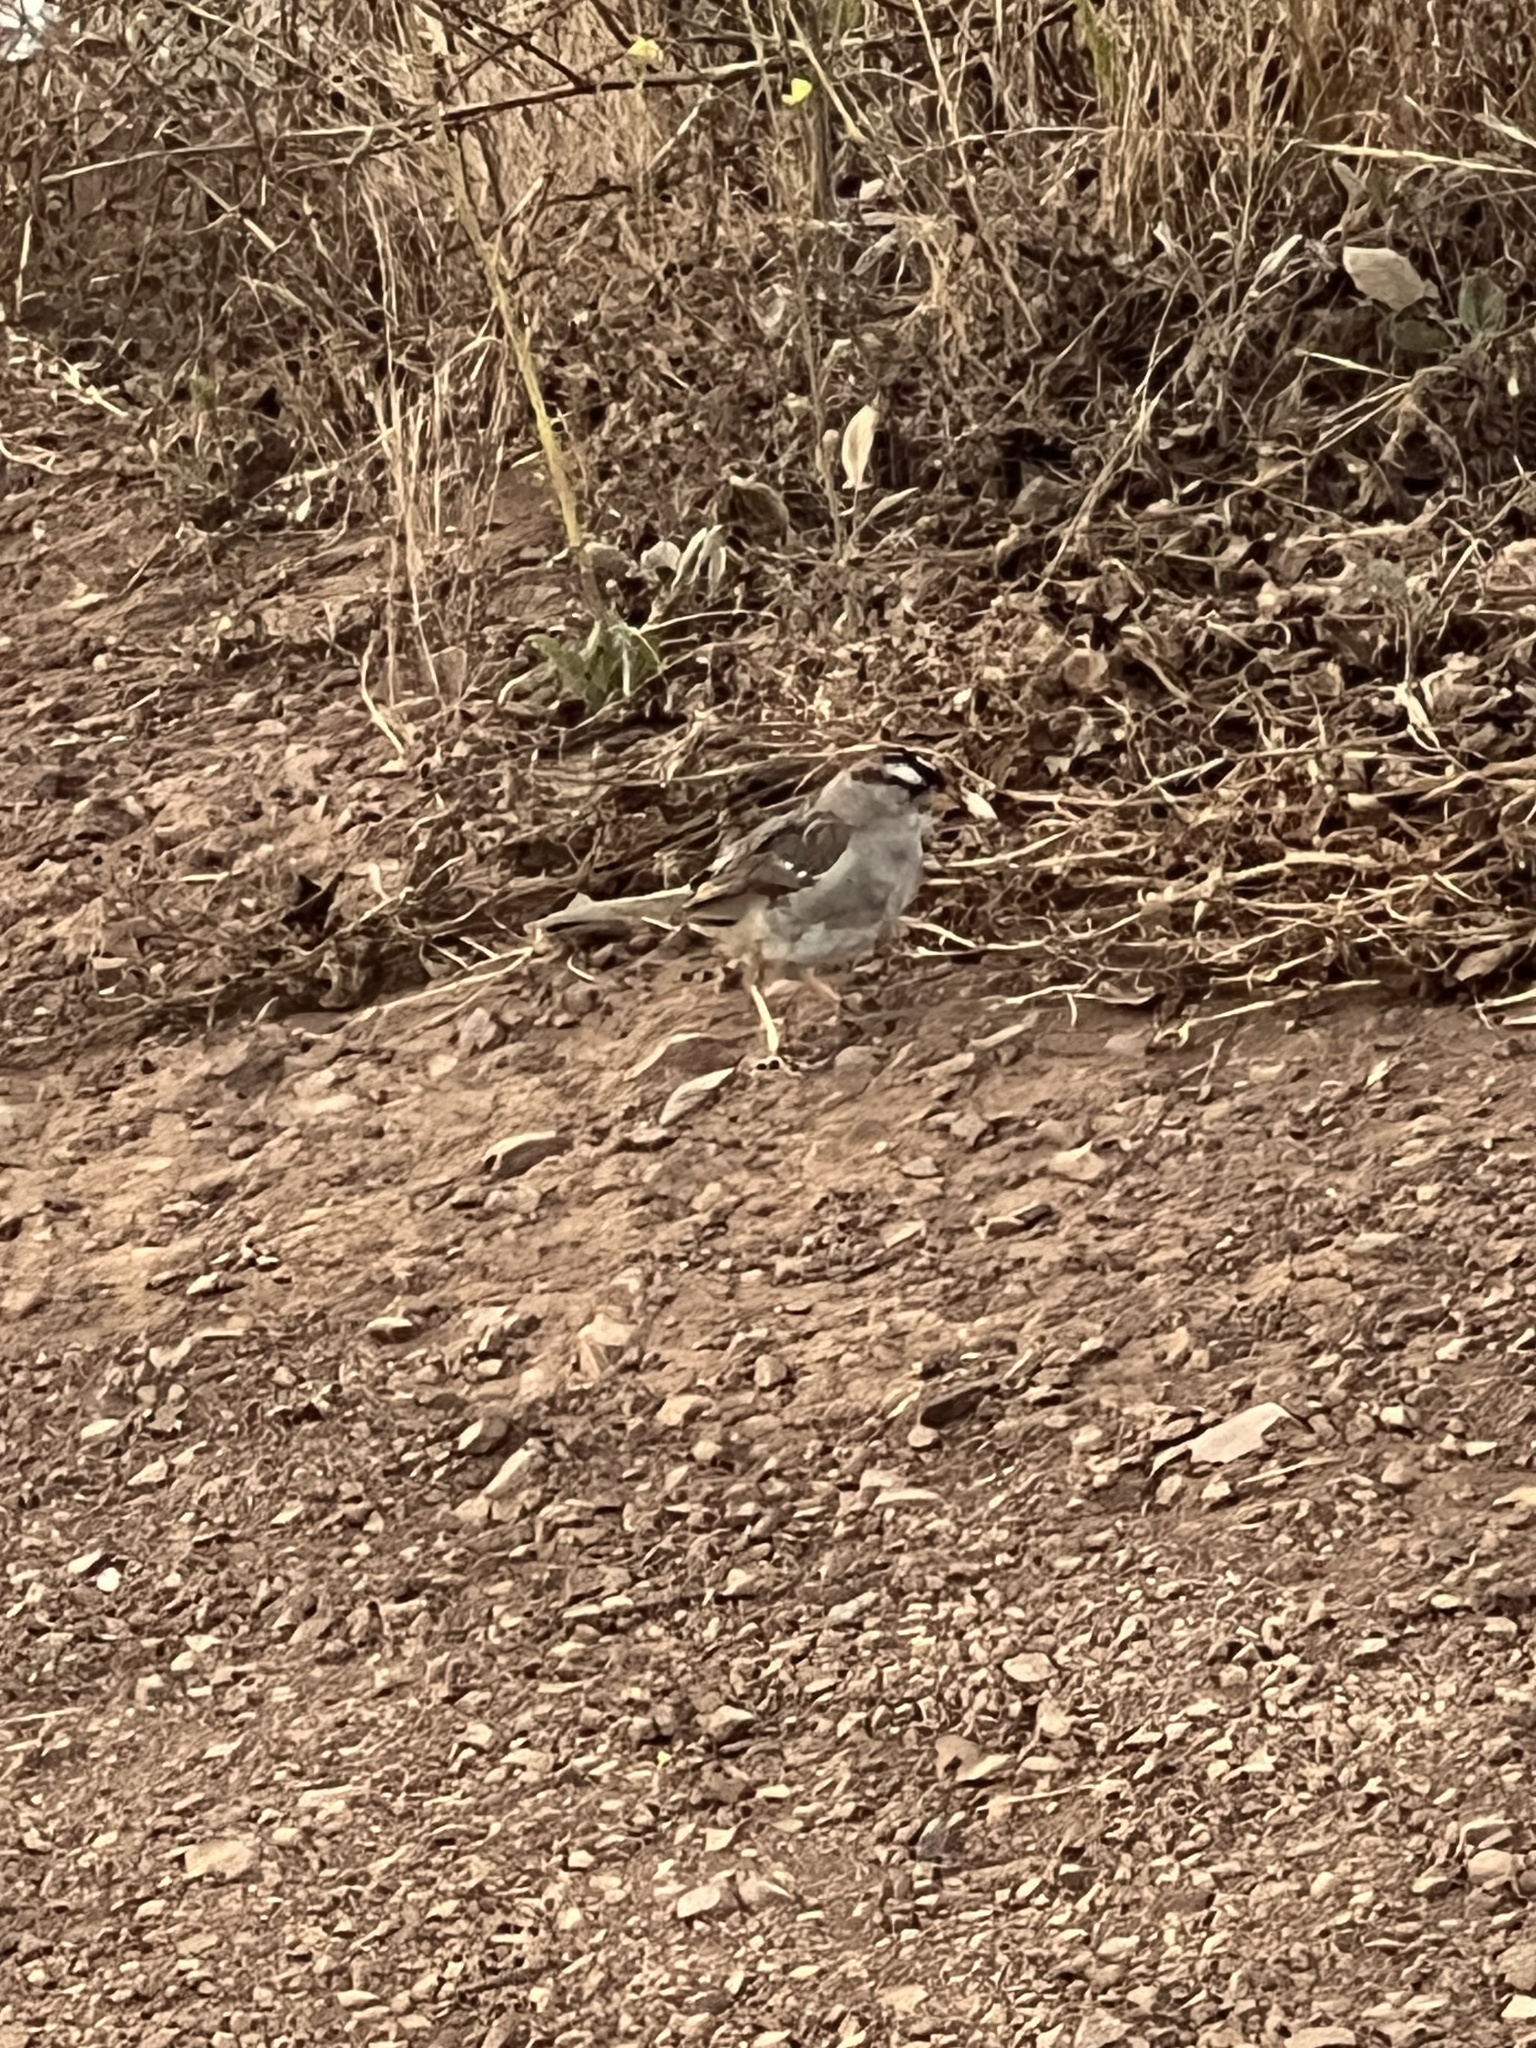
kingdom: Animalia
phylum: Chordata
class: Aves
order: Passeriformes
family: Passerellidae
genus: Zonotrichia
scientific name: Zonotrichia leucophrys
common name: White-crowned sparrow
